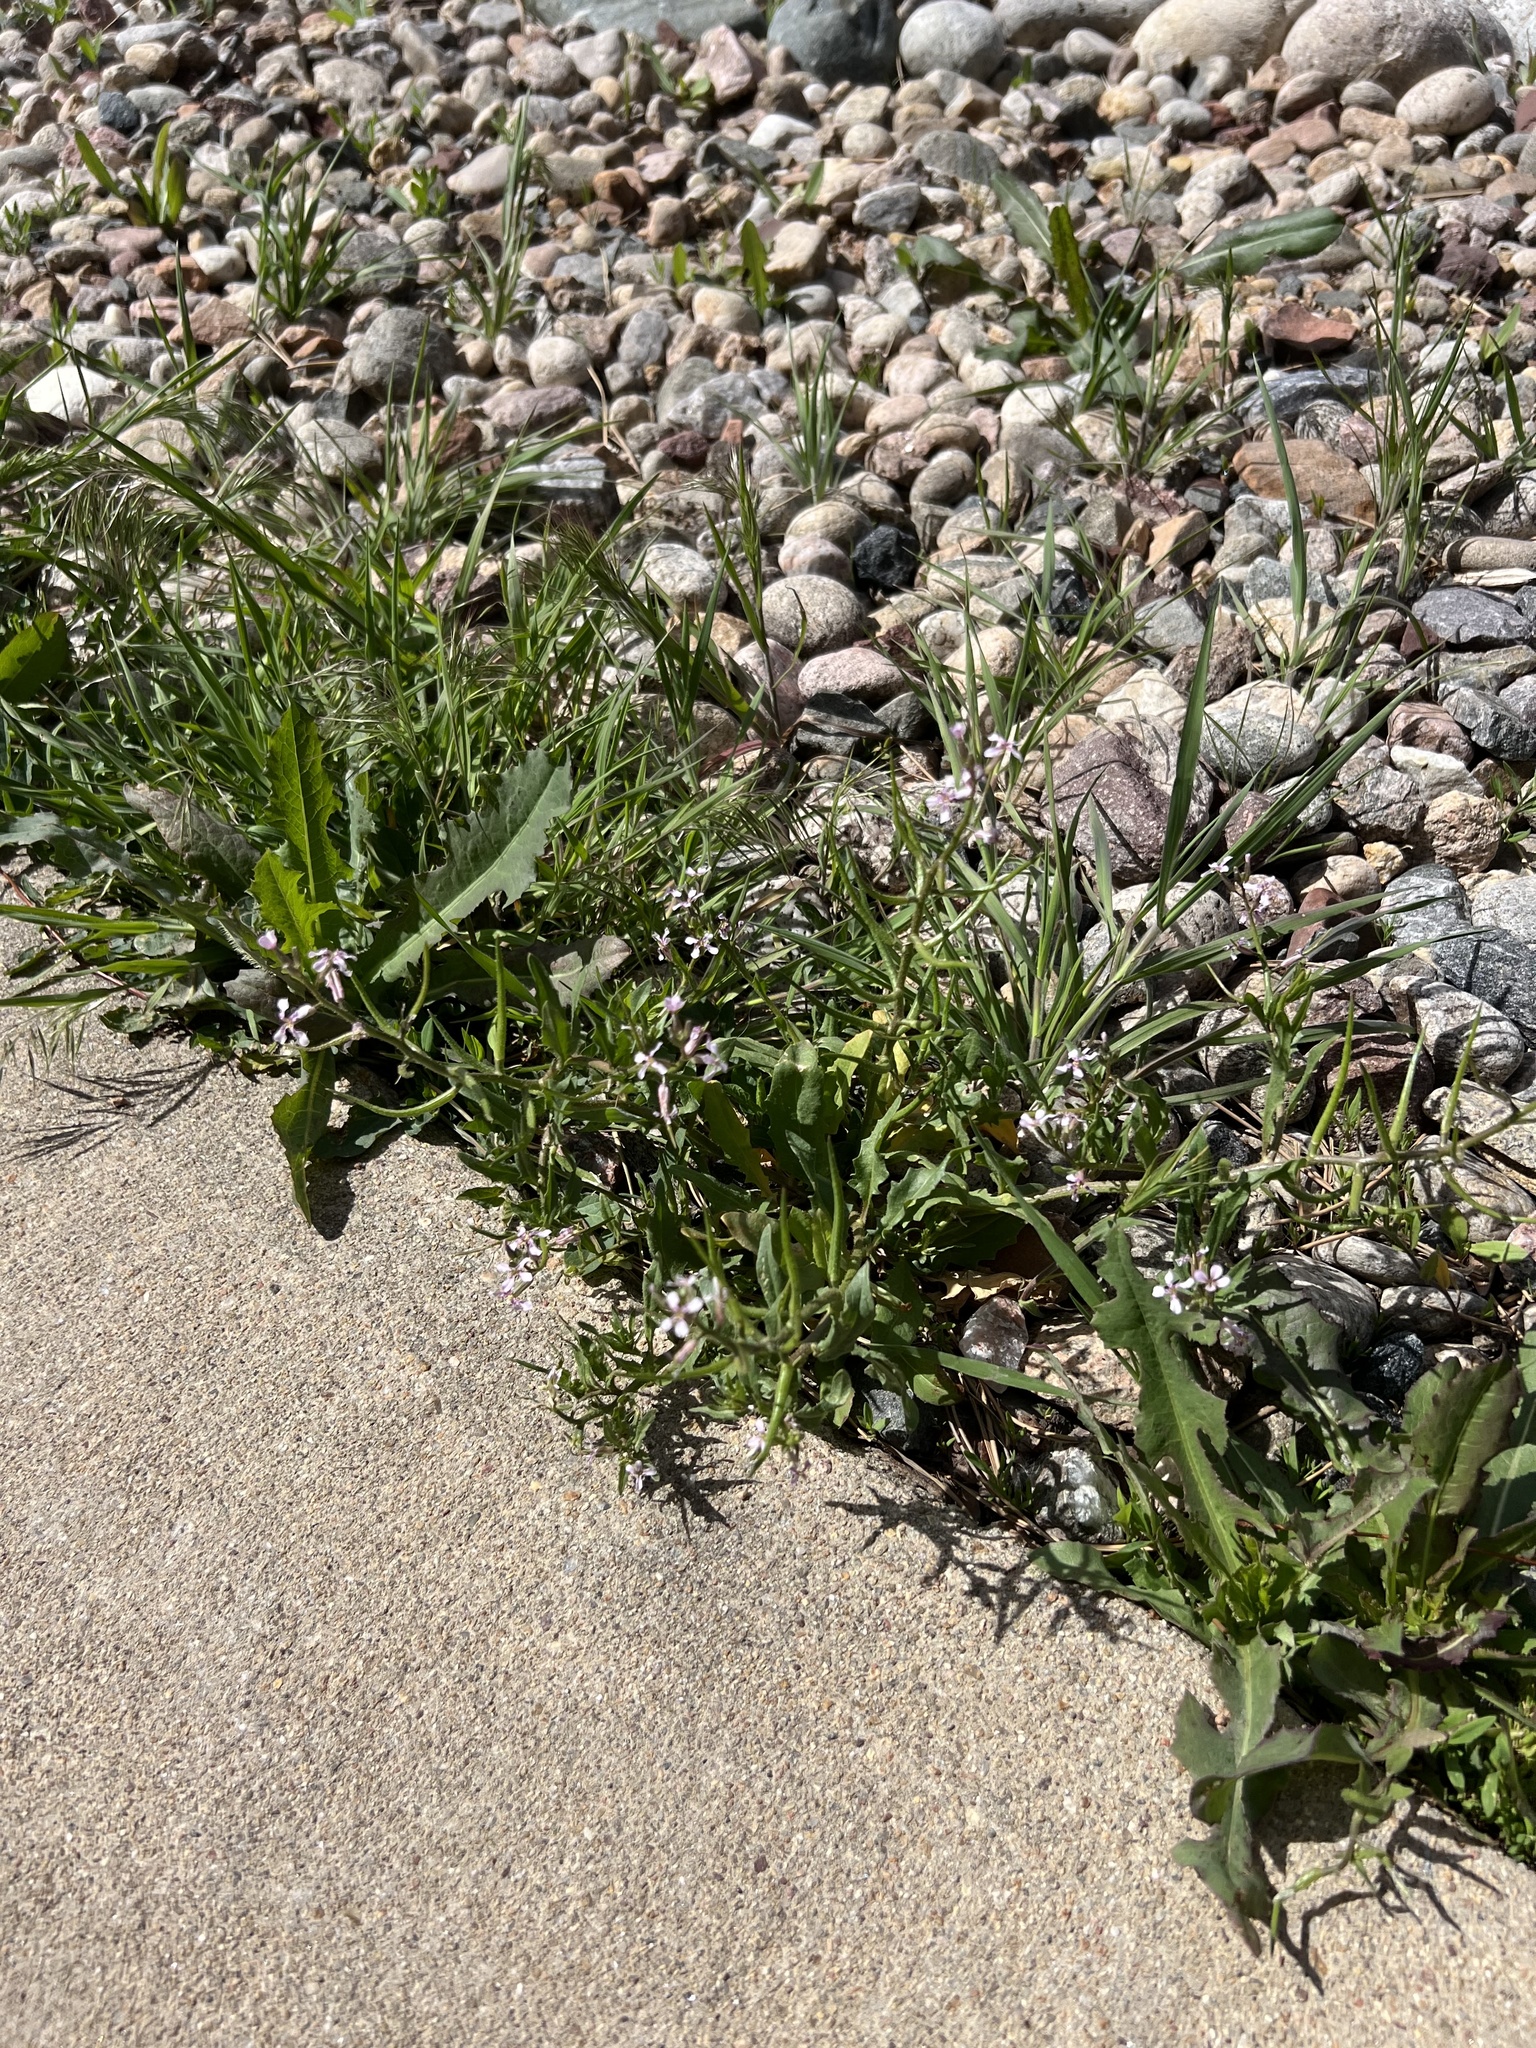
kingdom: Plantae
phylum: Tracheophyta
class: Magnoliopsida
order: Brassicales
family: Brassicaceae
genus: Chorispora
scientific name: Chorispora tenella
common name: Crossflower
